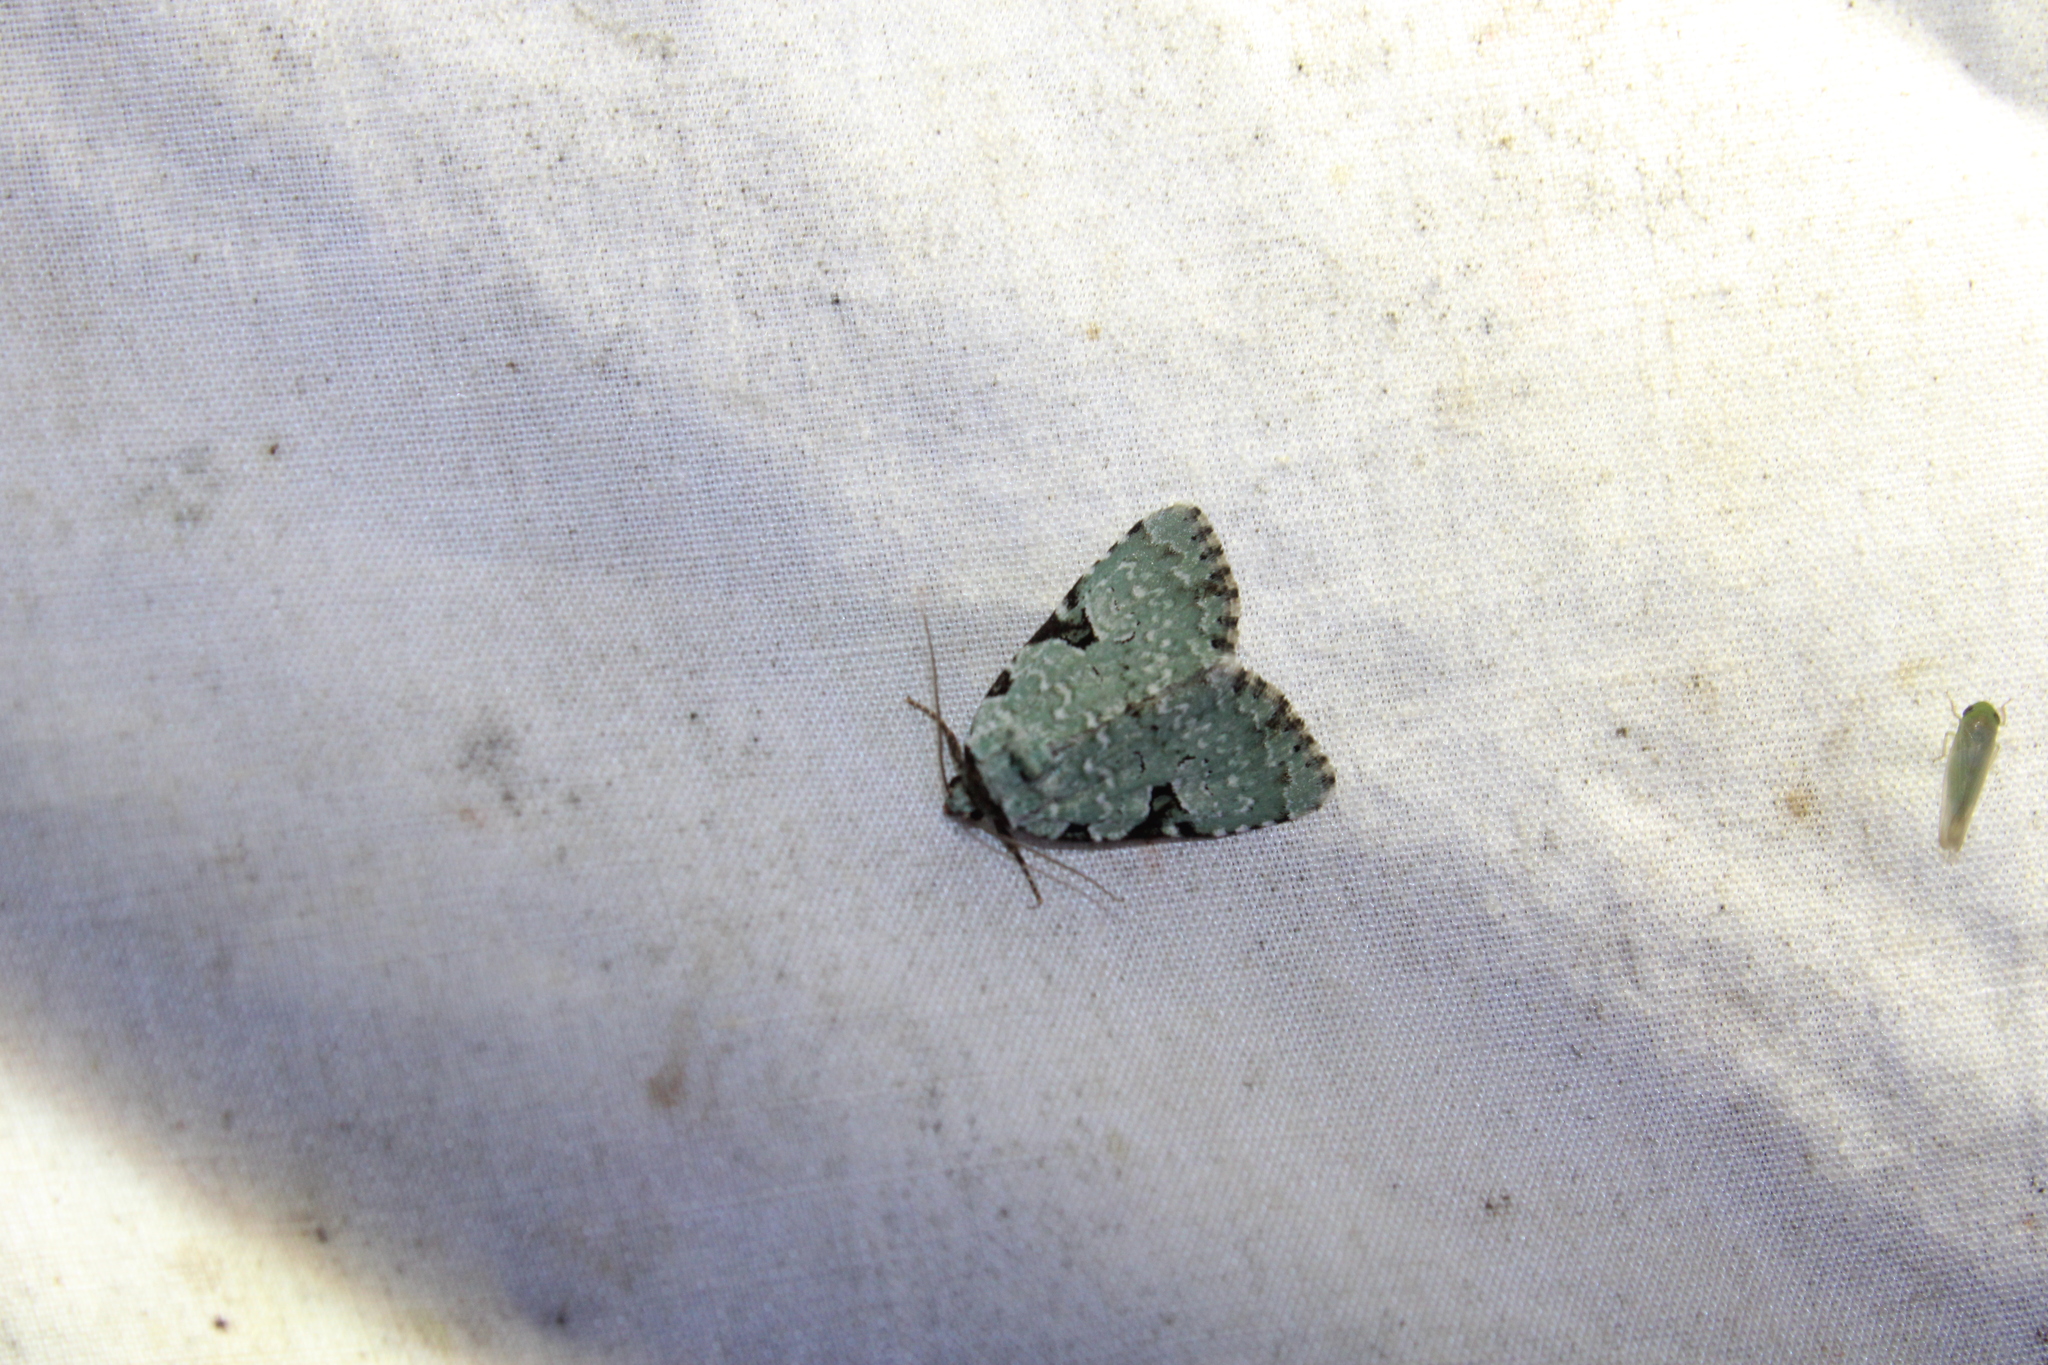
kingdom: Animalia
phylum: Arthropoda
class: Insecta
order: Lepidoptera
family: Noctuidae
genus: Leuconycta
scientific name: Leuconycta diphteroides
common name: Green leuconycta moth
